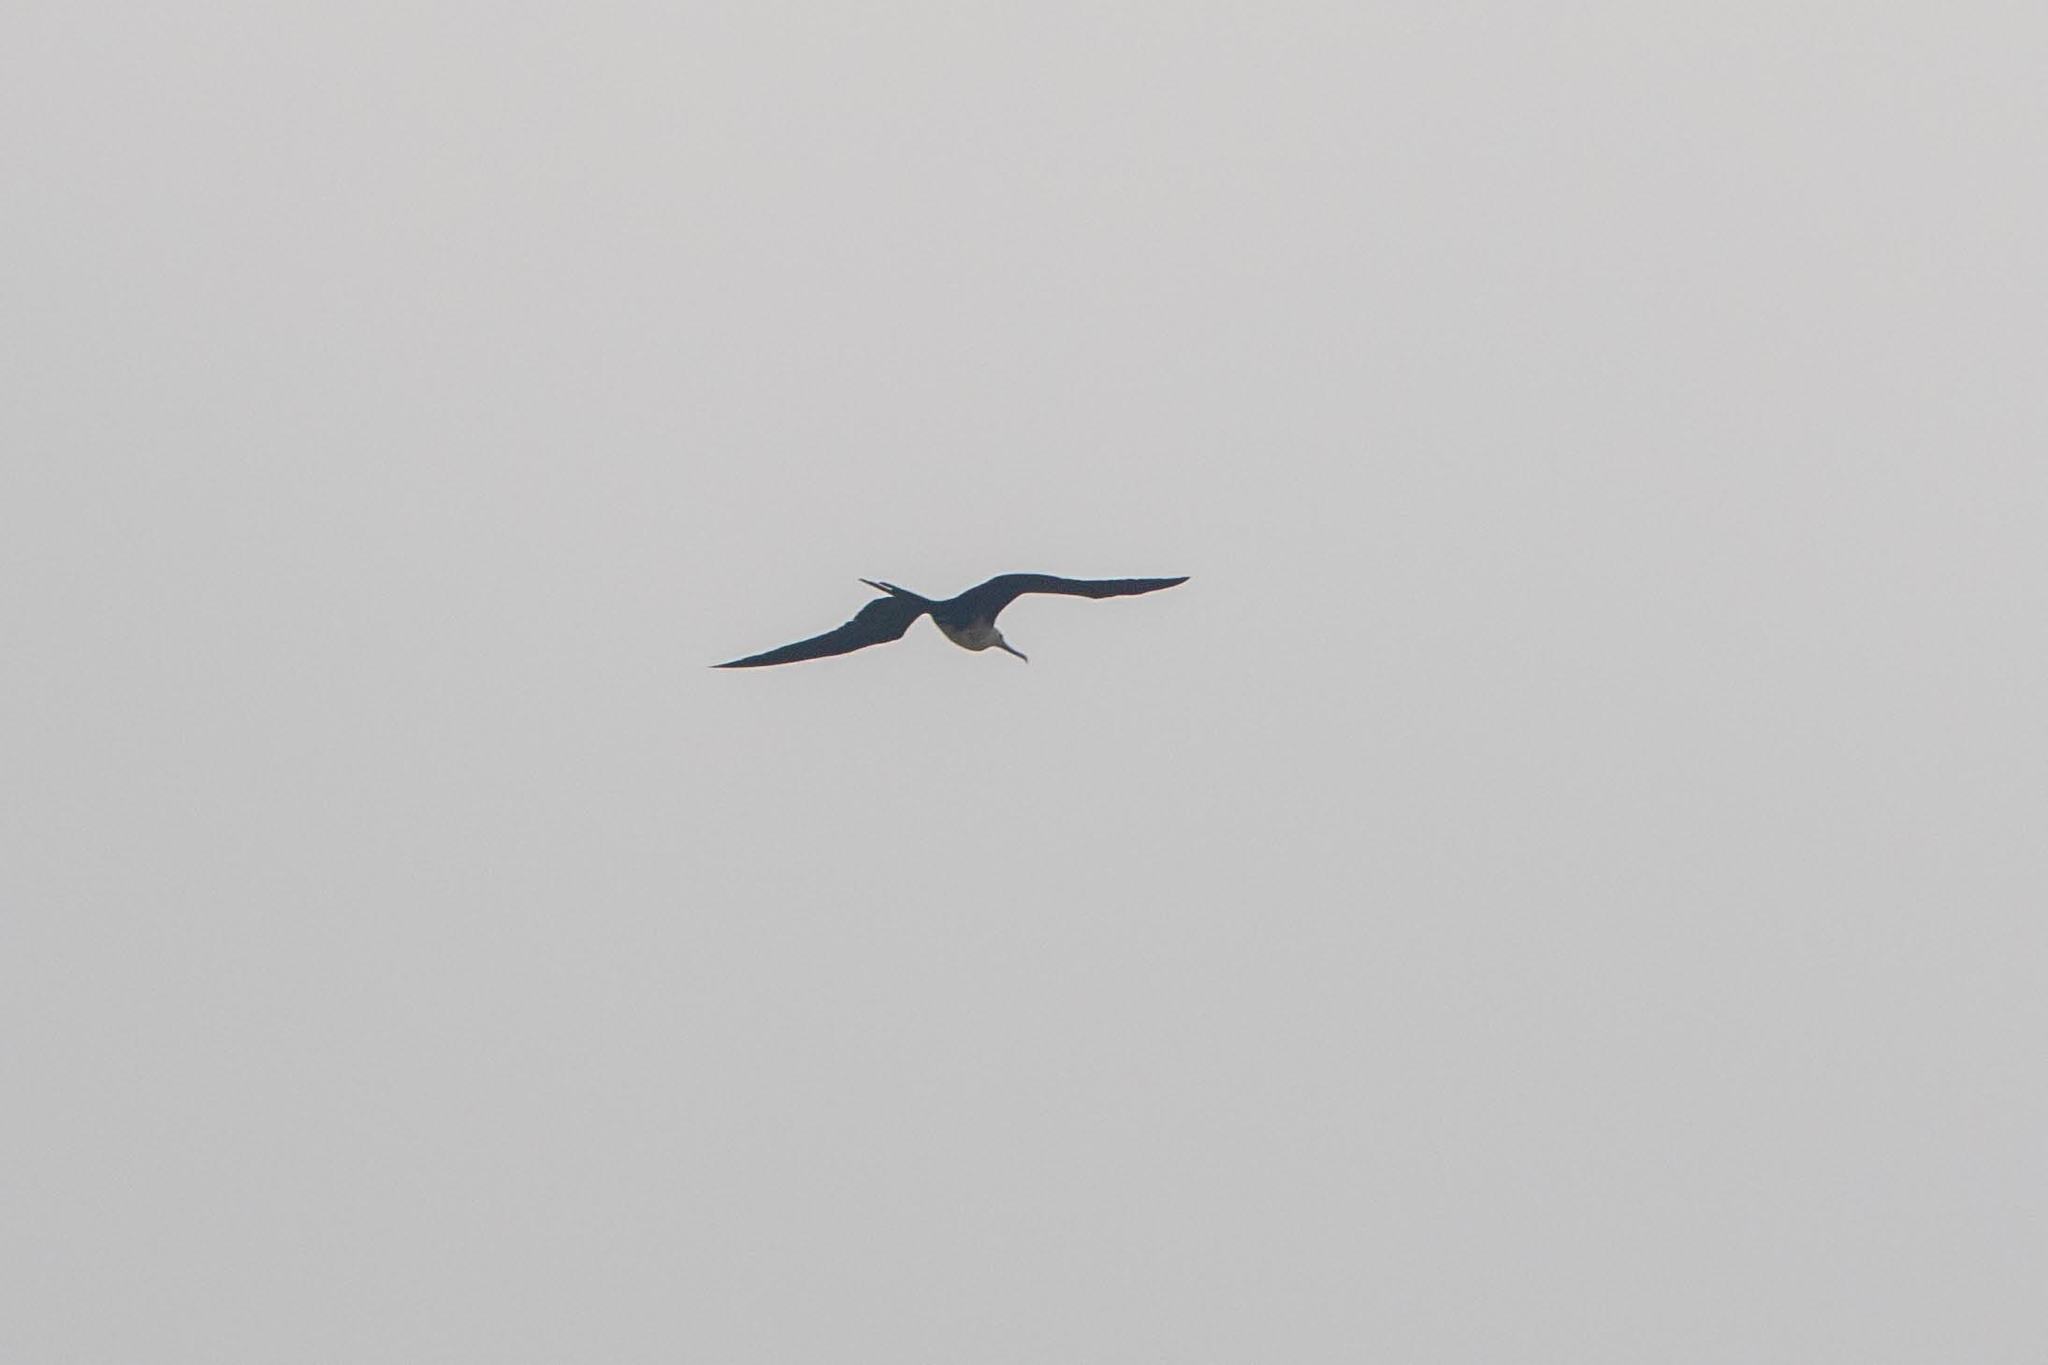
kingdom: Animalia
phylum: Chordata
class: Aves
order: Suliformes
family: Fregatidae
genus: Fregata
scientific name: Fregata magnificens
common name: Magnificent frigatebird
